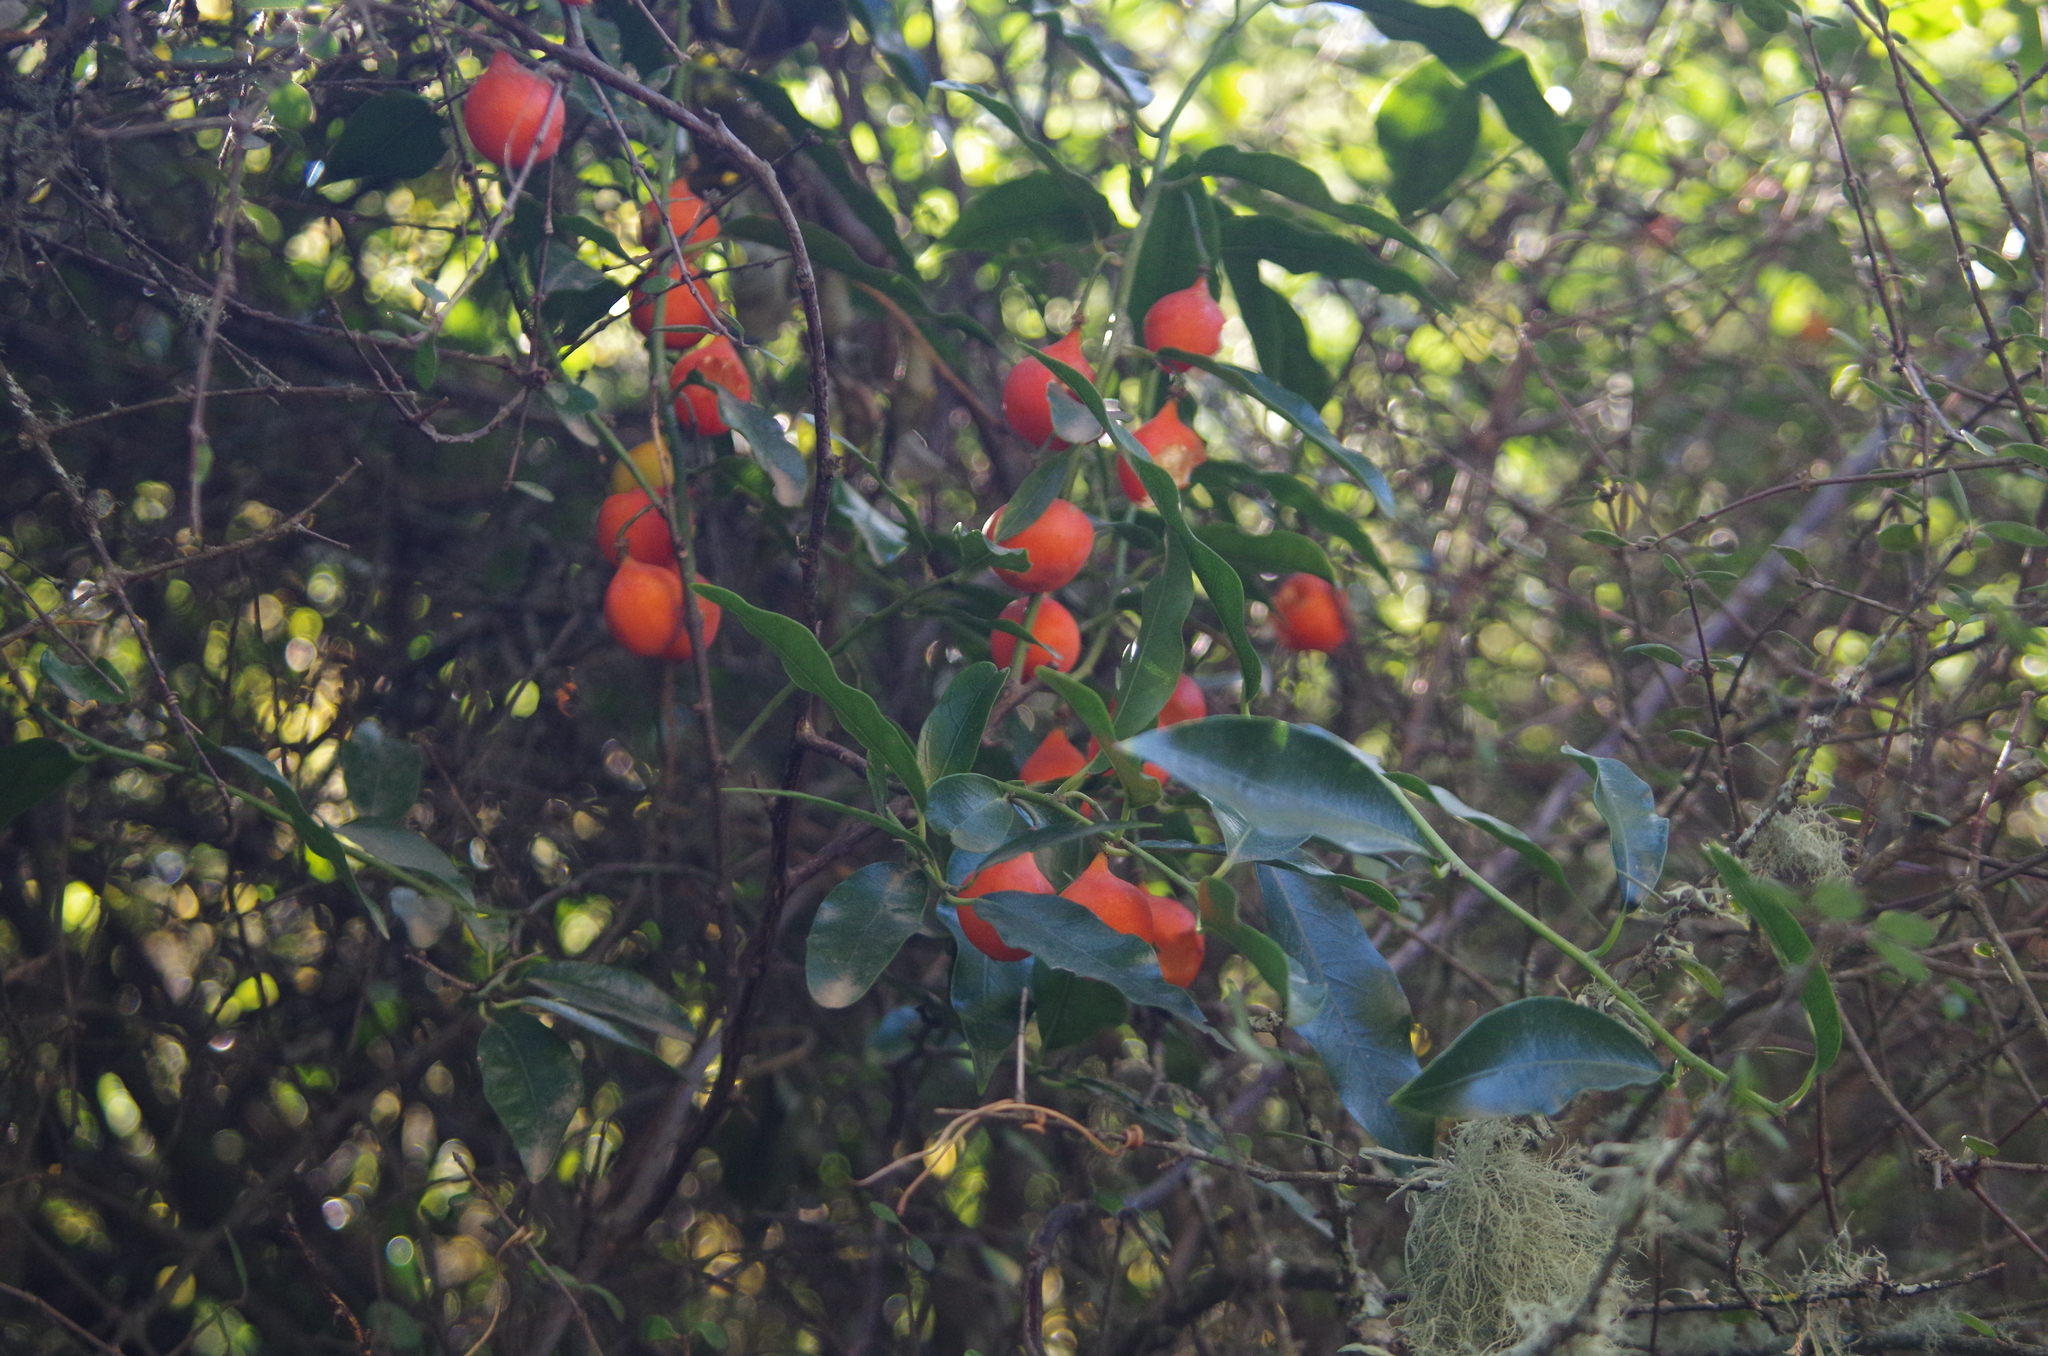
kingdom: Plantae
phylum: Tracheophyta
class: Magnoliopsida
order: Malpighiales
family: Passifloraceae
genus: Passiflora
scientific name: Passiflora tetrandra
